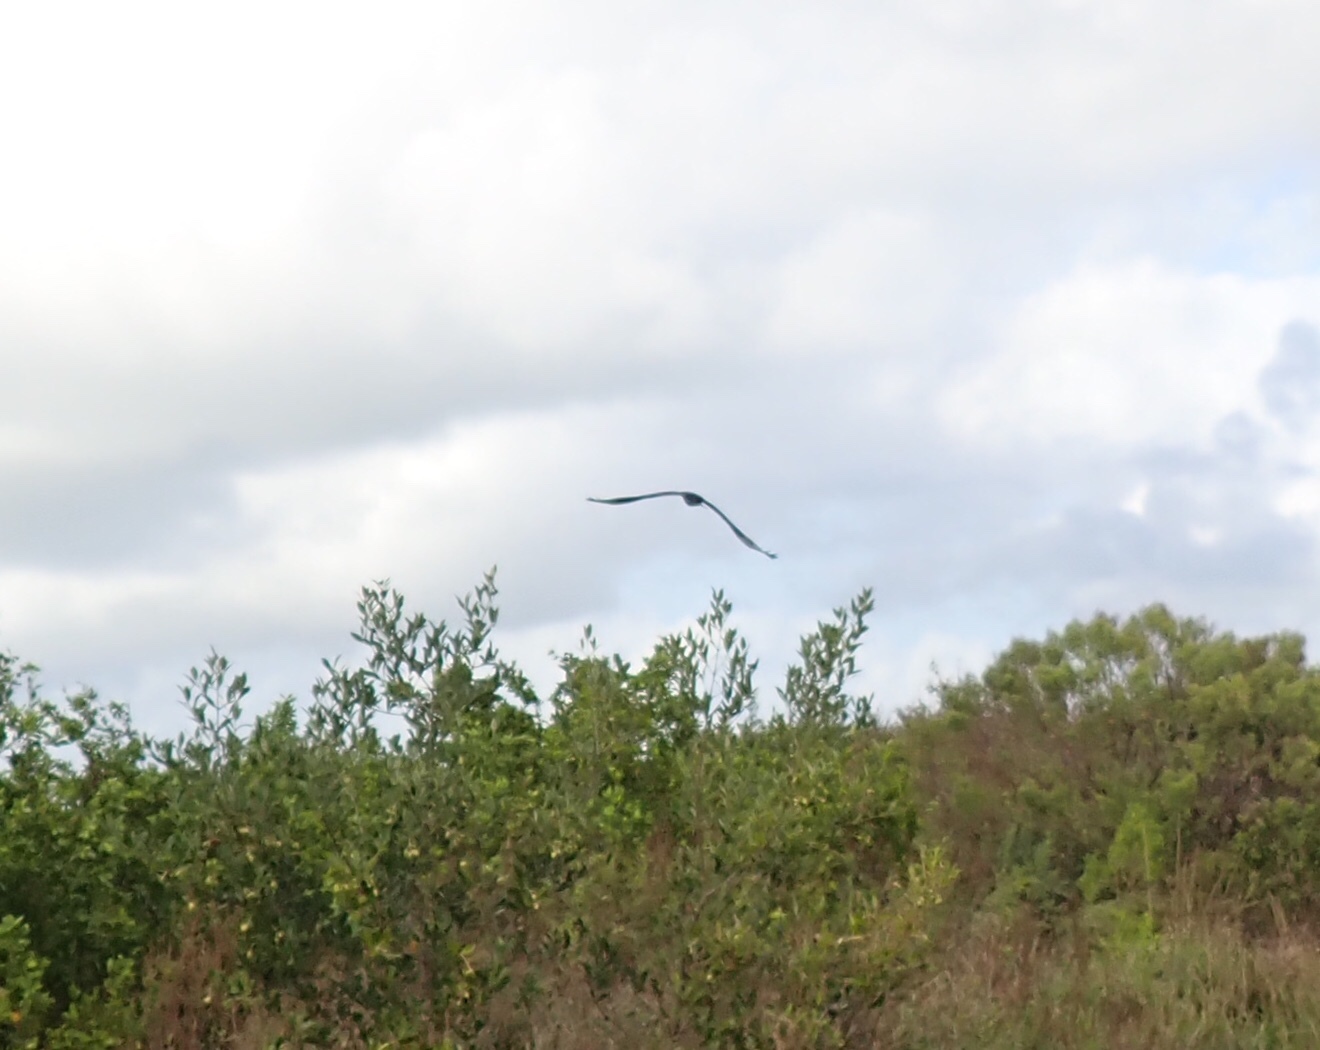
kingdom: Animalia
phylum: Chordata
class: Aves
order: Accipitriformes
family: Cathartidae
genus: Cathartes
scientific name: Cathartes aura
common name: Turkey vulture
